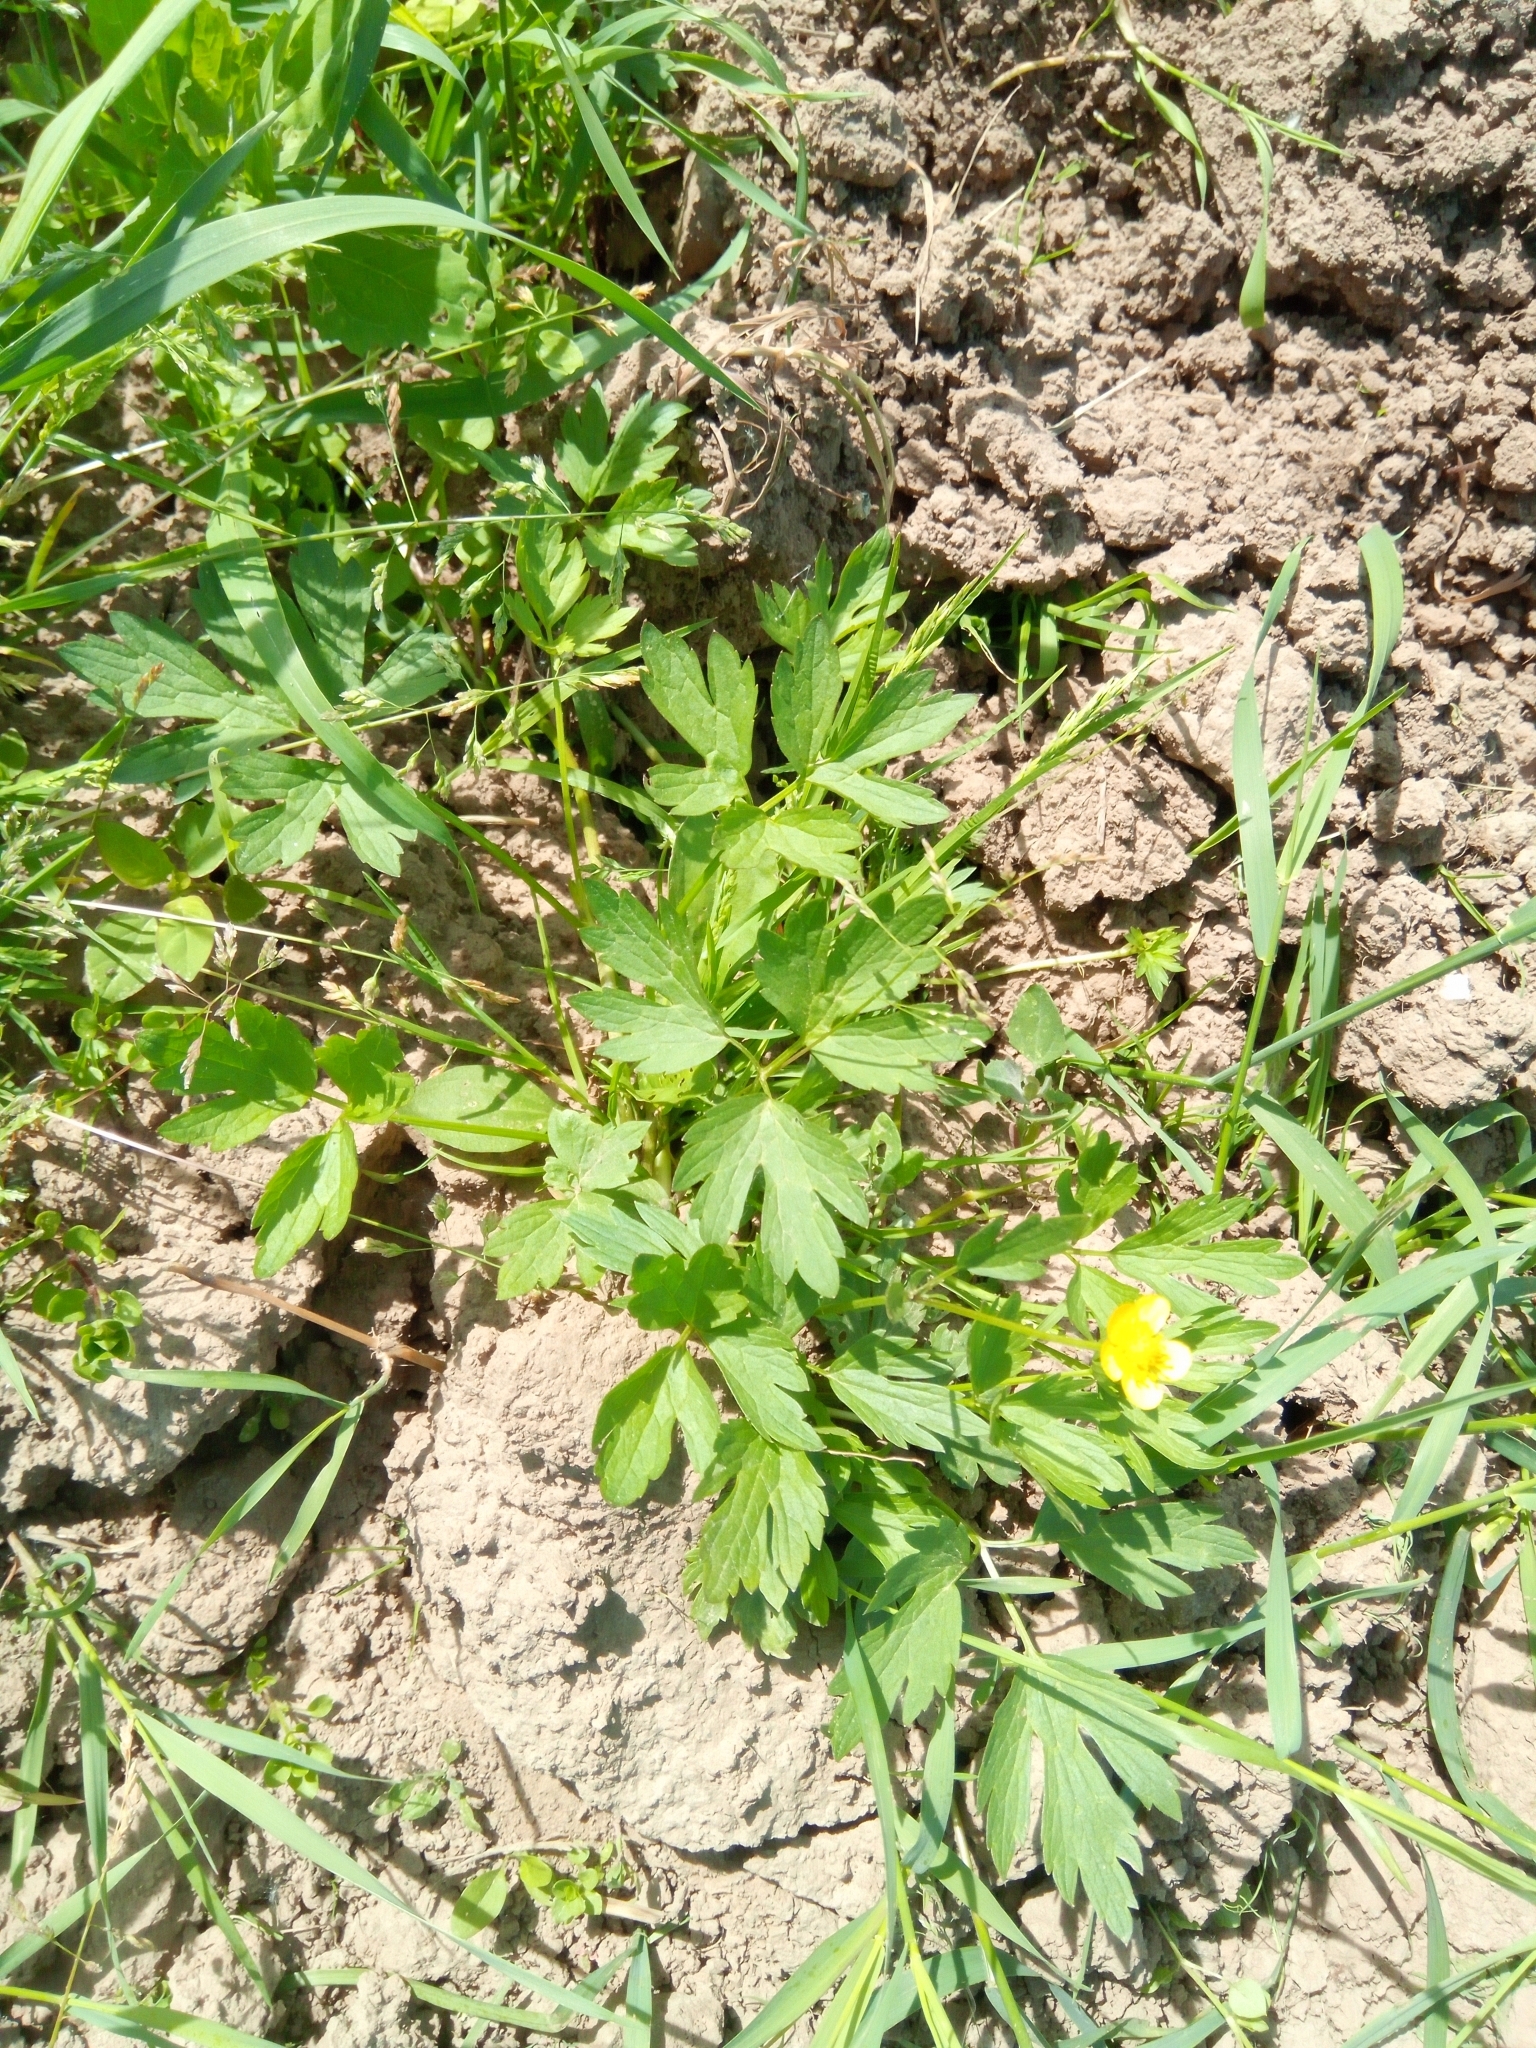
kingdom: Plantae
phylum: Tracheophyta
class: Magnoliopsida
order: Ranunculales
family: Ranunculaceae
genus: Ranunculus
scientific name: Ranunculus repens
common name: Creeping buttercup
